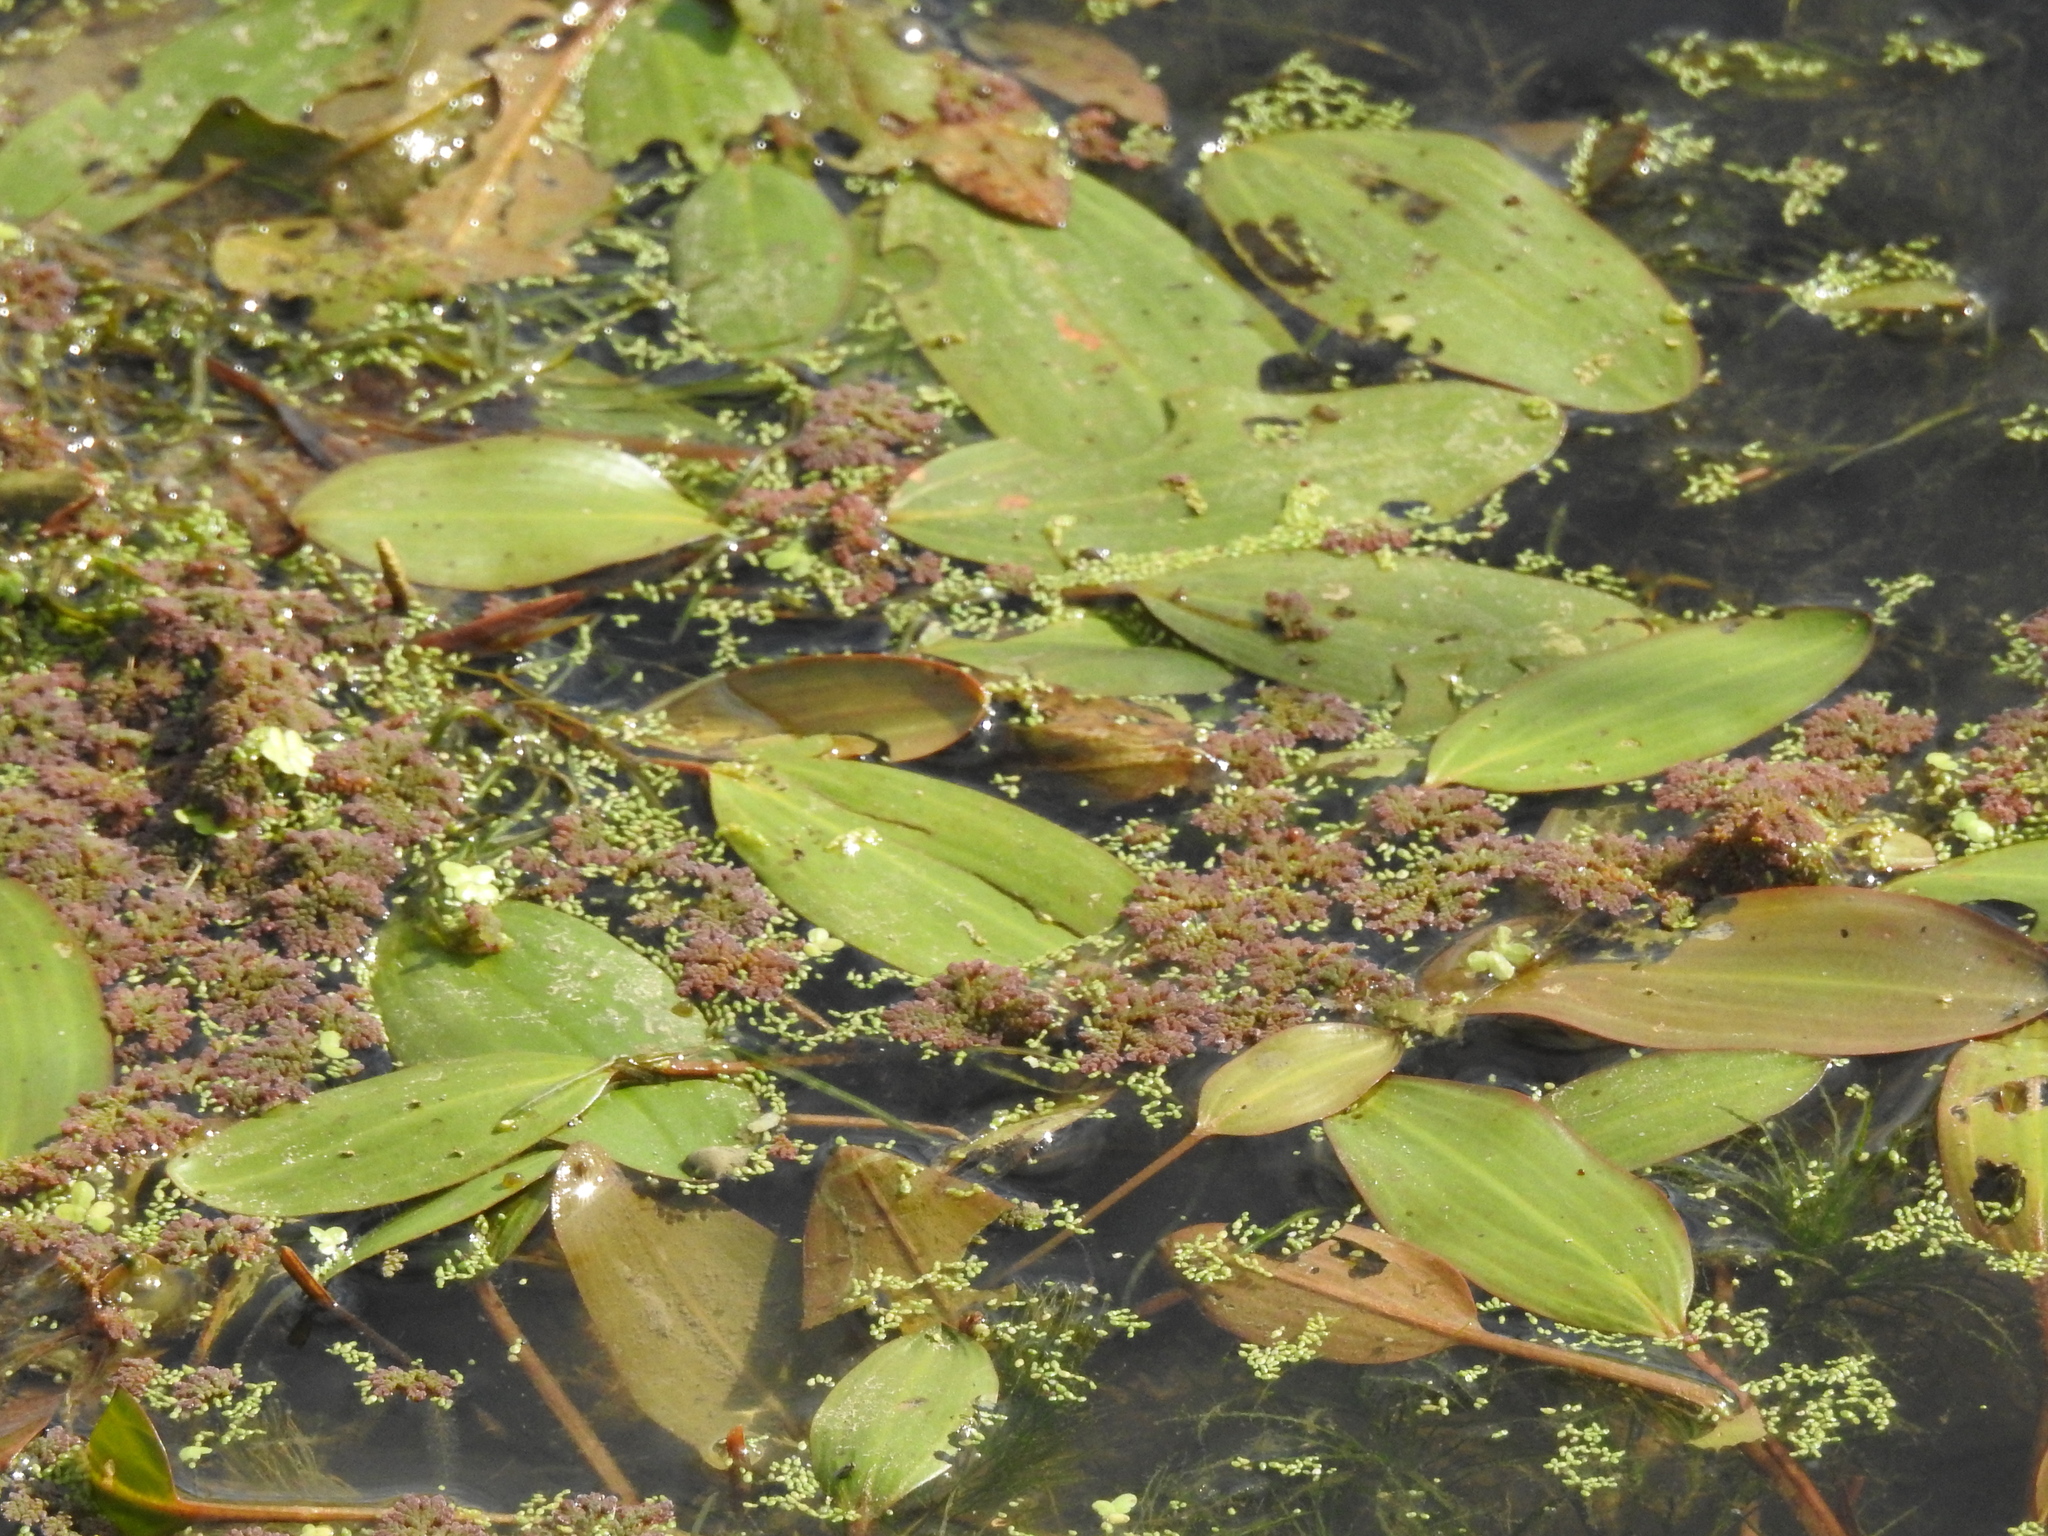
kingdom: Plantae
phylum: Tracheophyta
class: Liliopsida
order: Alismatales
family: Potamogetonaceae
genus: Potamogeton
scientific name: Potamogeton nodosus
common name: Loddon pondweed
